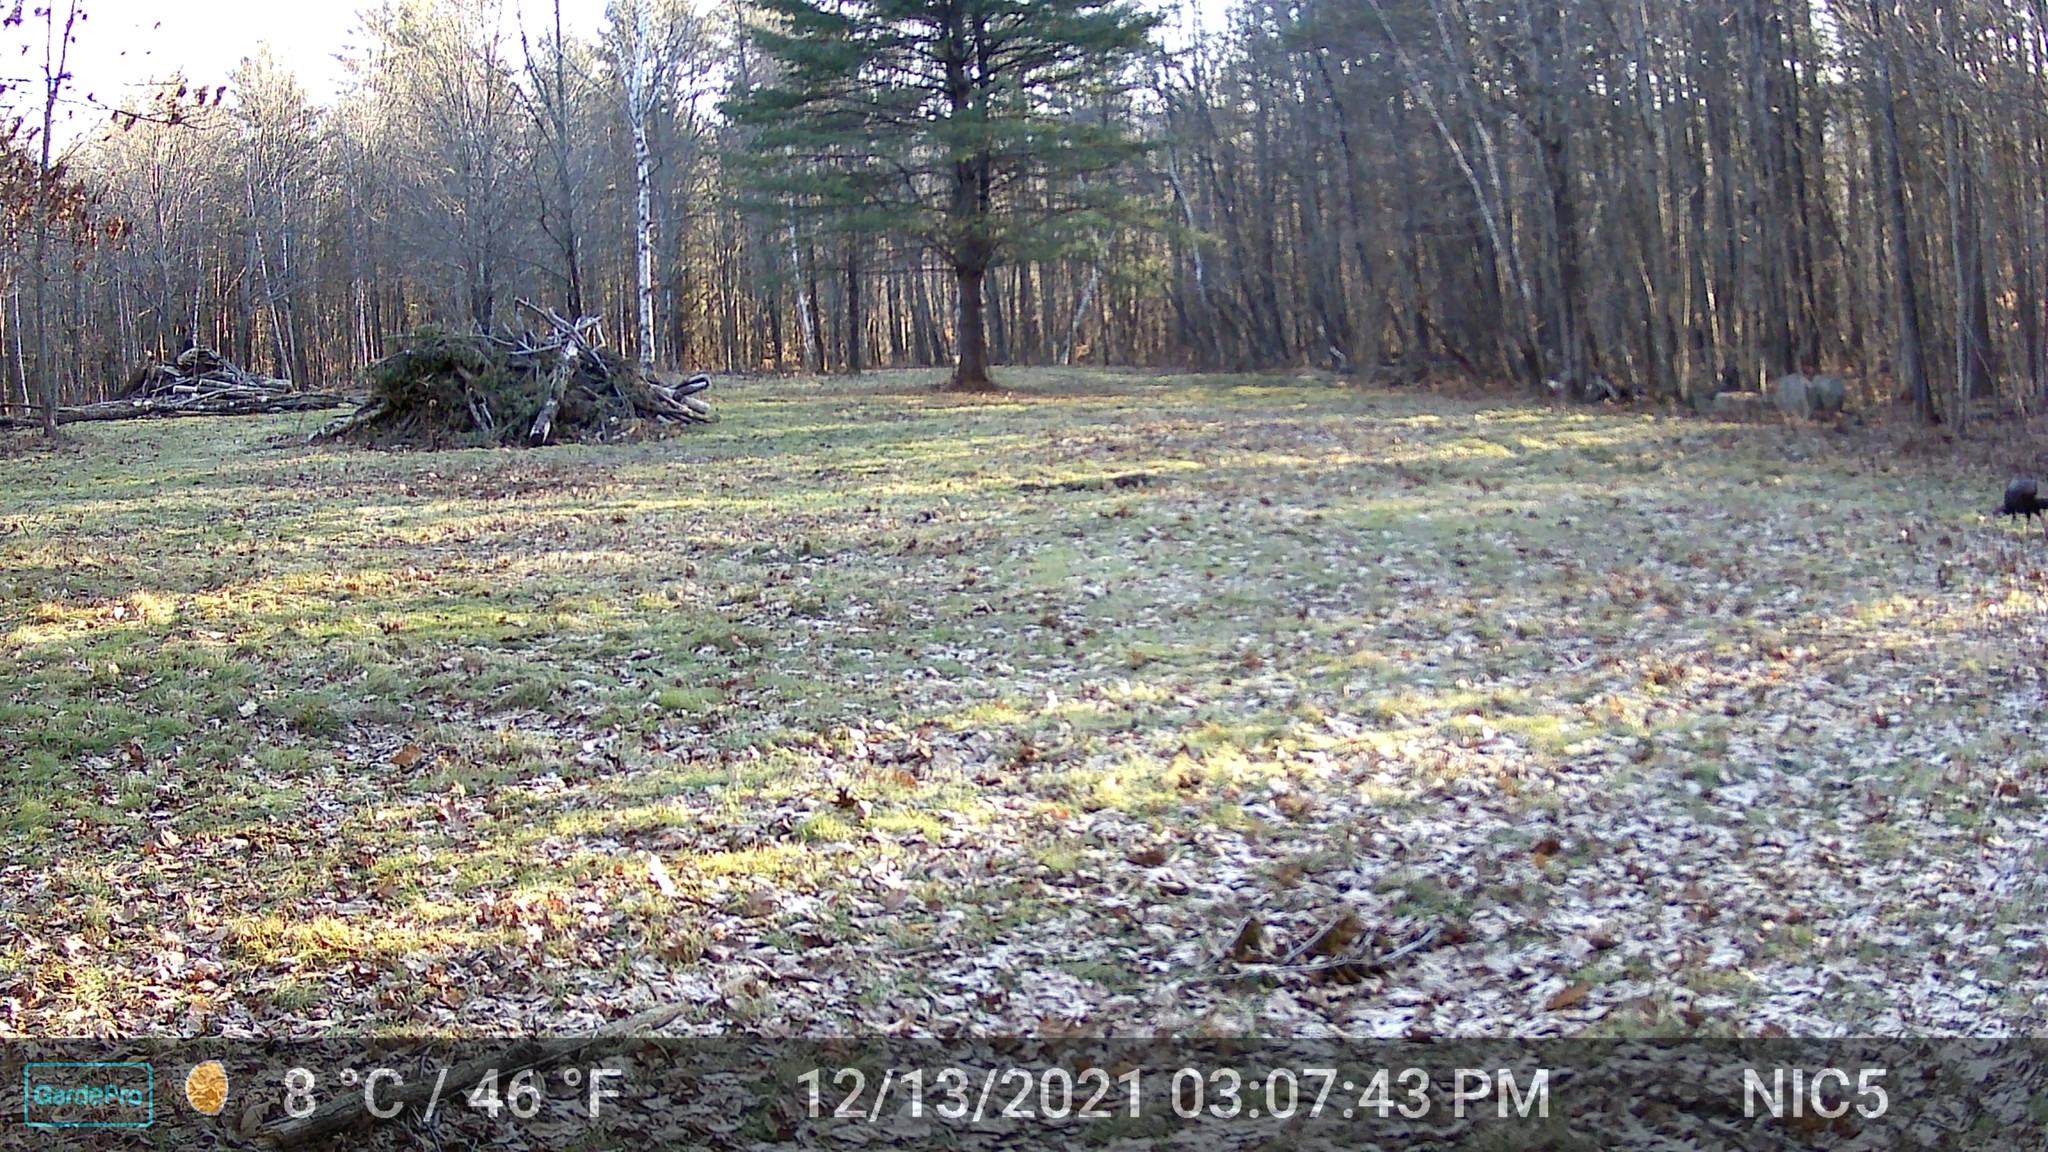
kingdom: Animalia
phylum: Chordata
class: Aves
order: Galliformes
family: Phasianidae
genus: Meleagris
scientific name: Meleagris gallopavo
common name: Wild turkey
